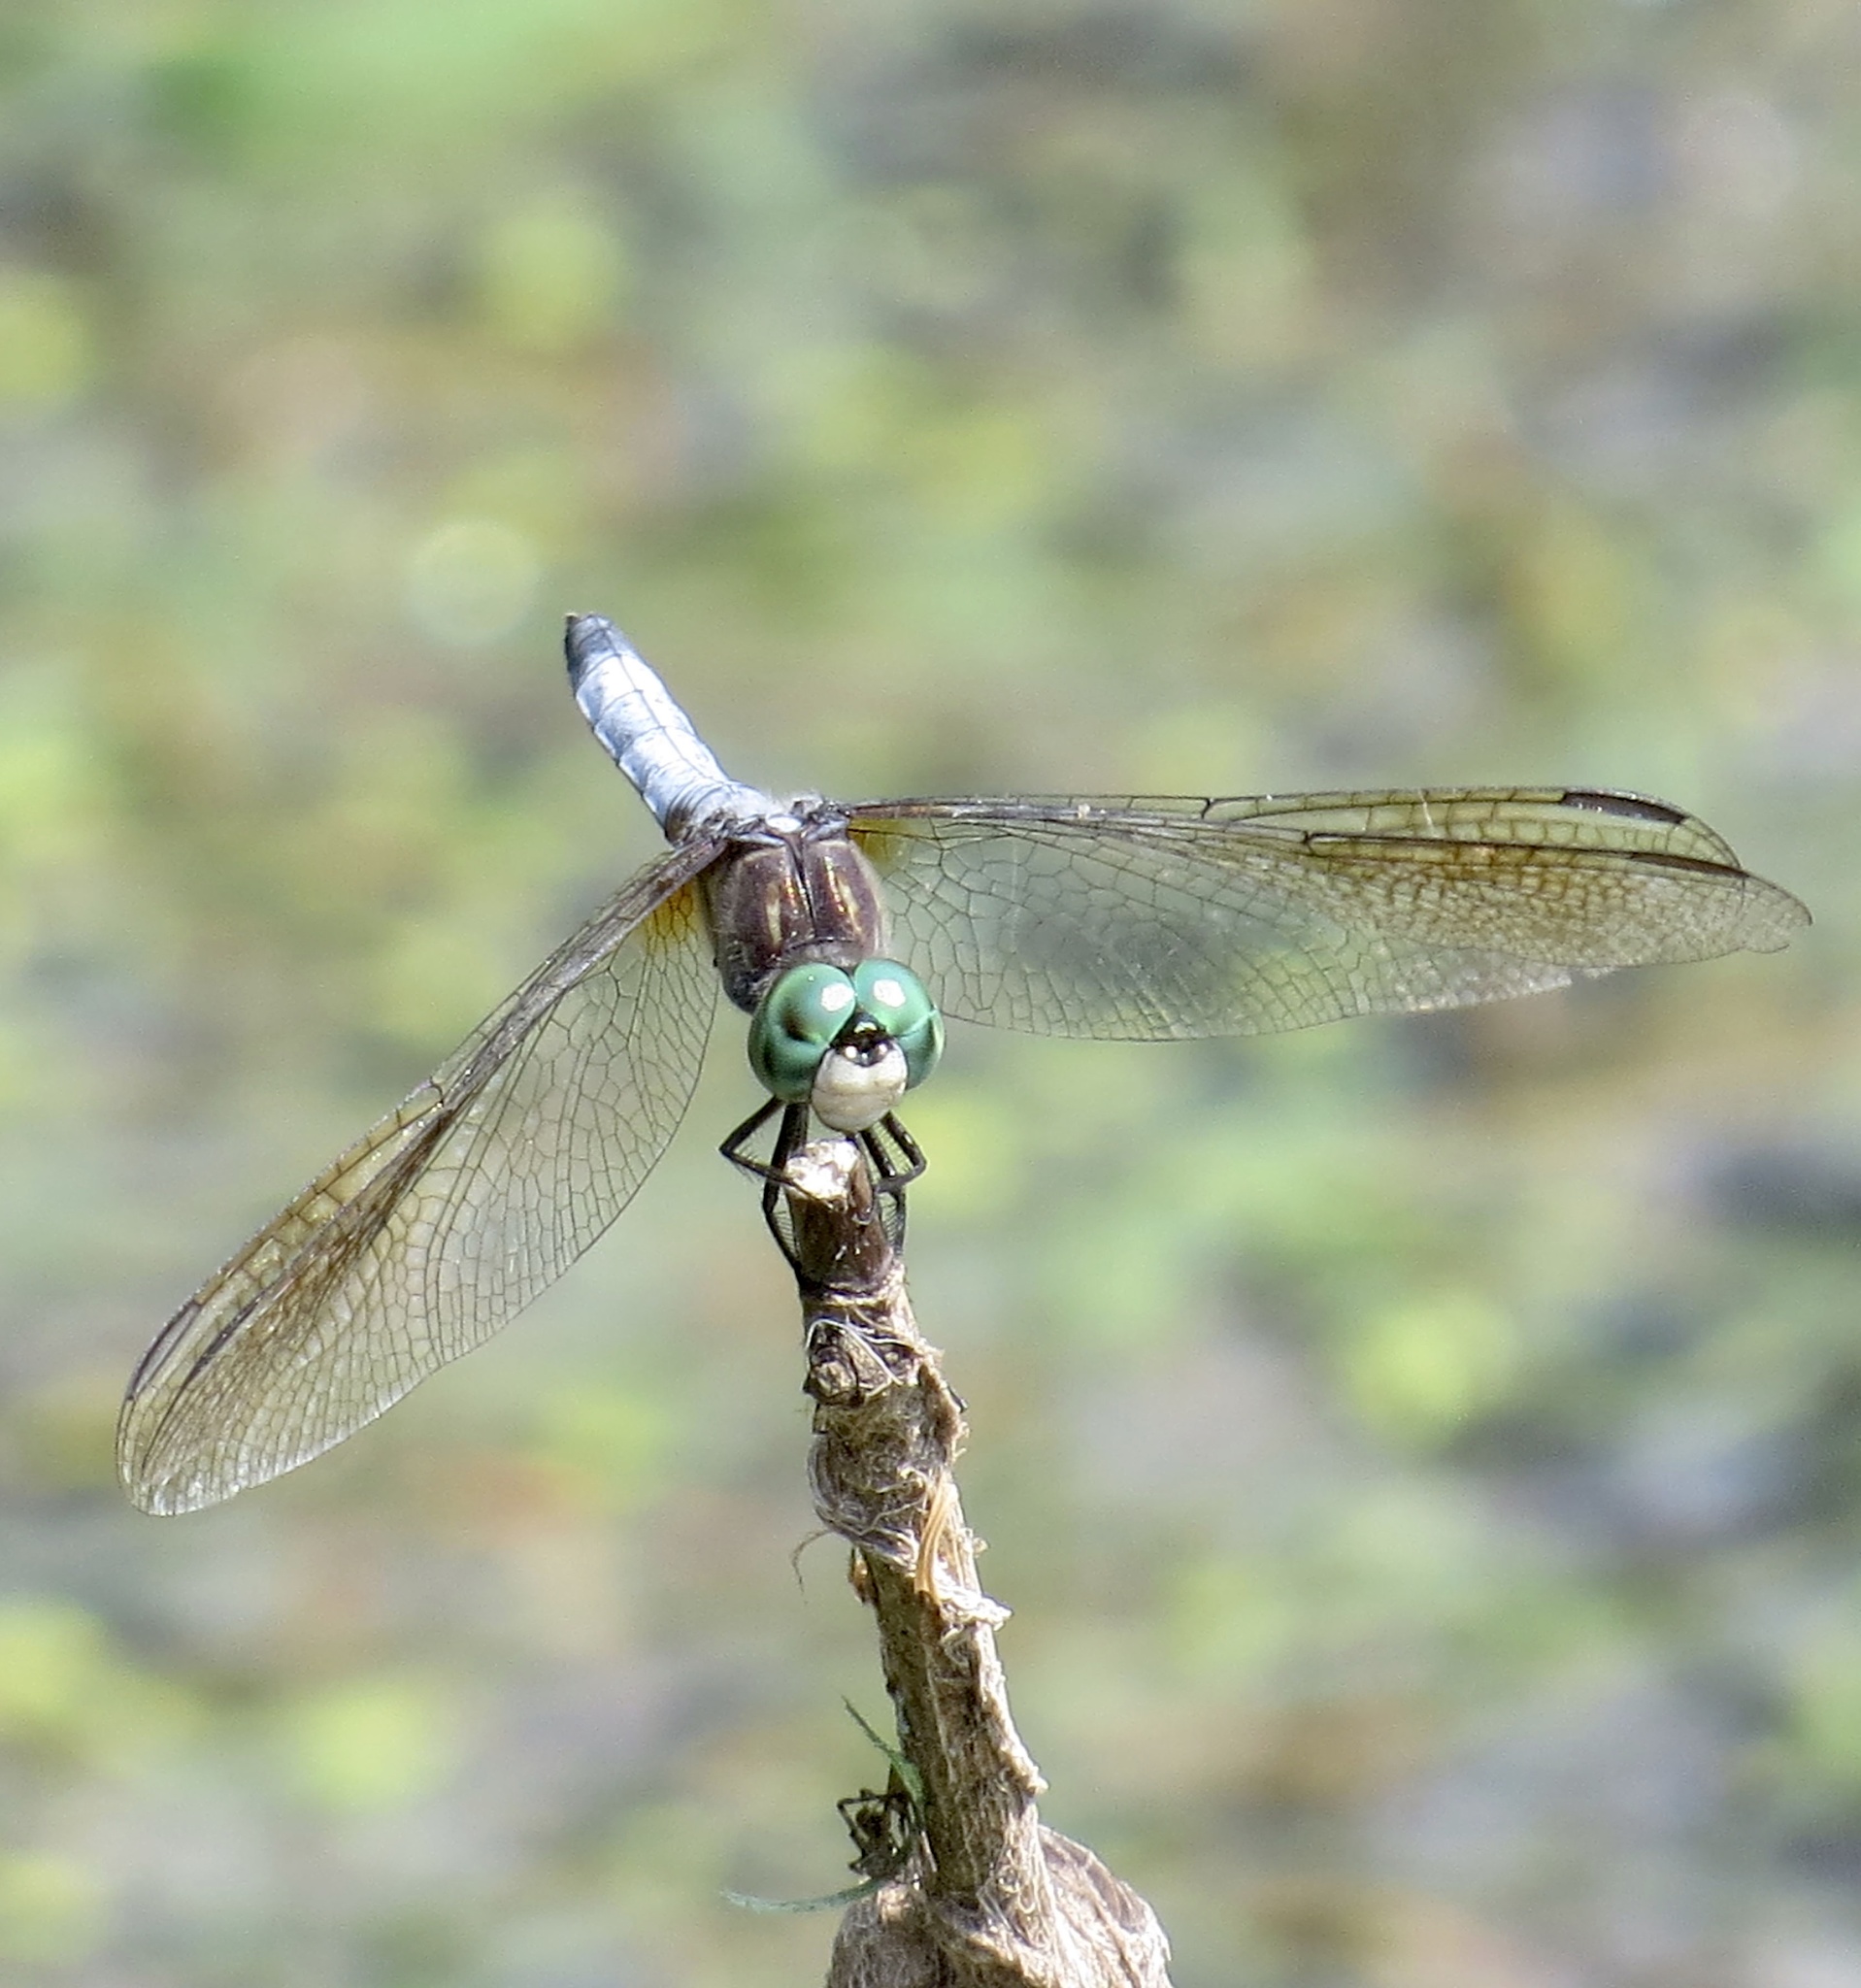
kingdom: Animalia
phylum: Arthropoda
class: Insecta
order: Odonata
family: Libellulidae
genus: Pachydiplax
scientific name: Pachydiplax longipennis
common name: Blue dasher
